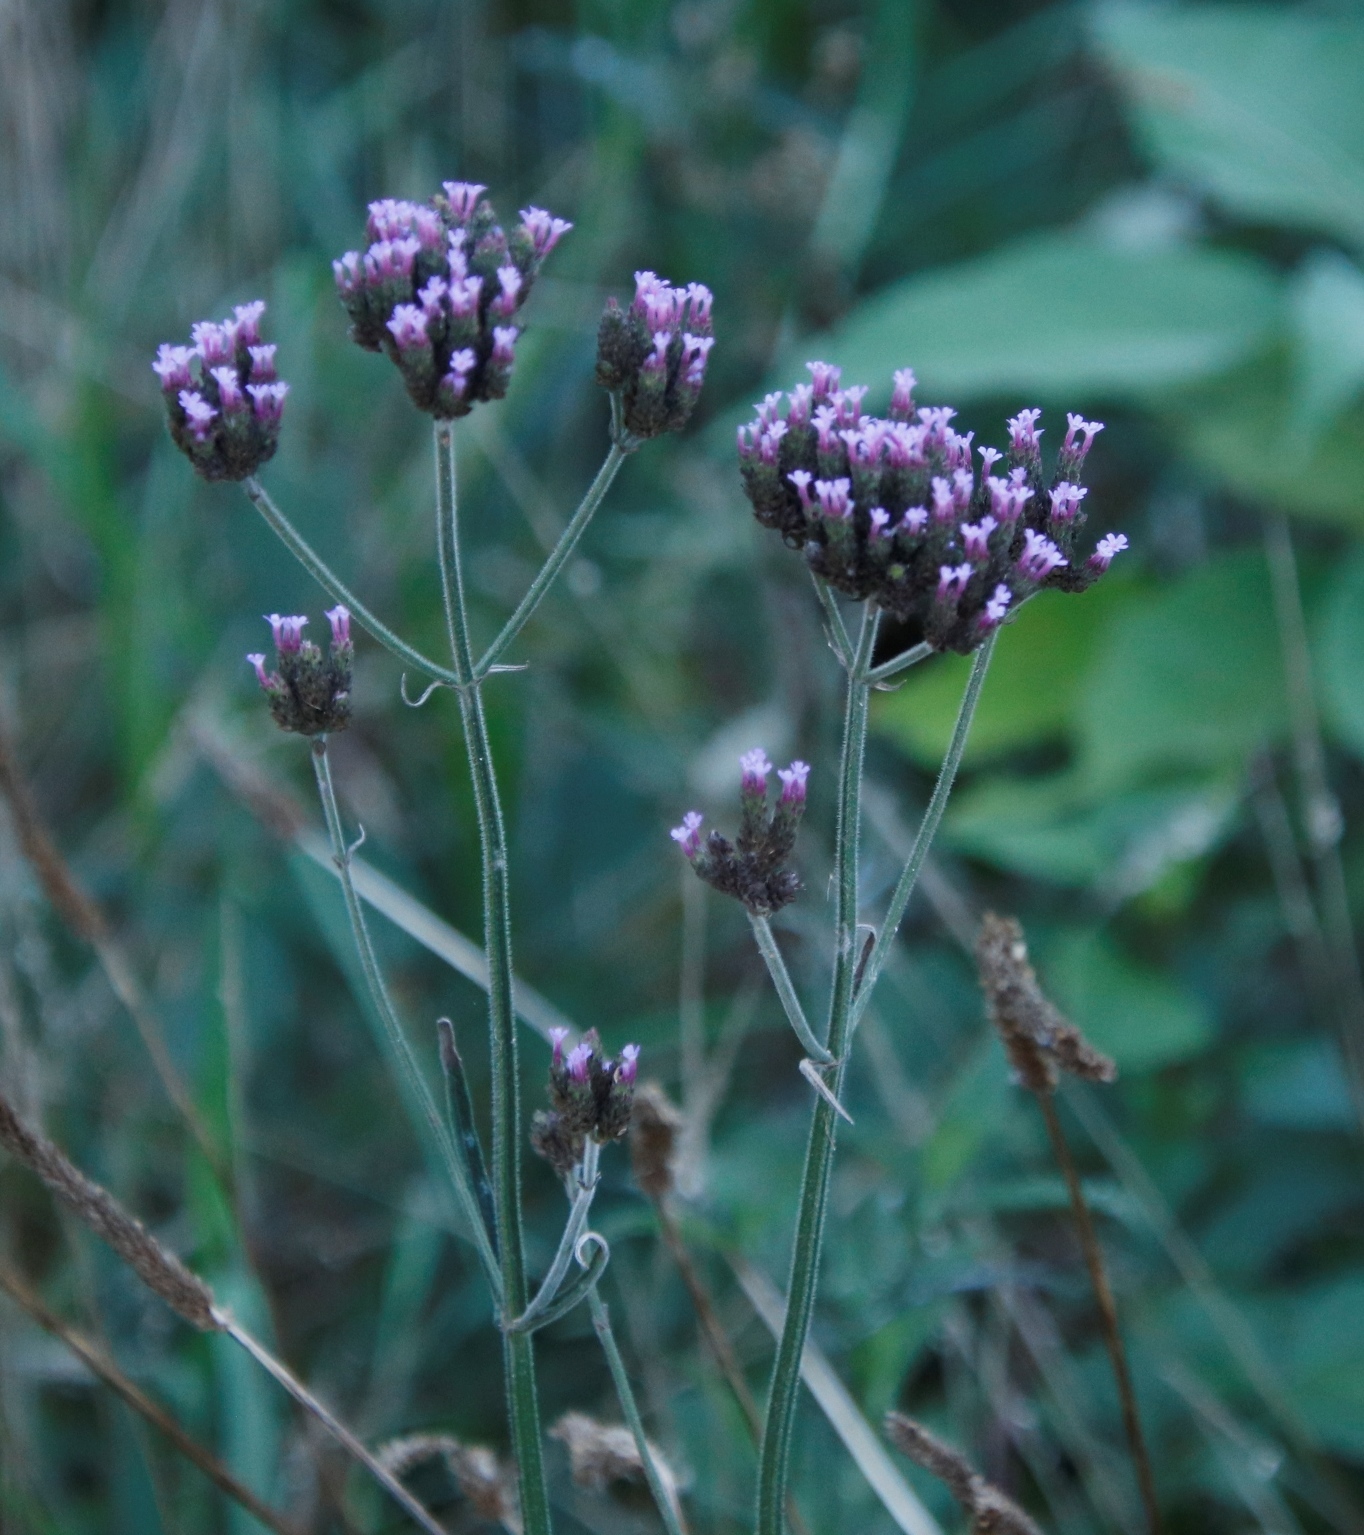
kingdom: Plantae
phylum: Tracheophyta
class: Magnoliopsida
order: Lamiales
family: Verbenaceae
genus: Verbena
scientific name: Verbena bonariensis
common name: Purpletop vervain
